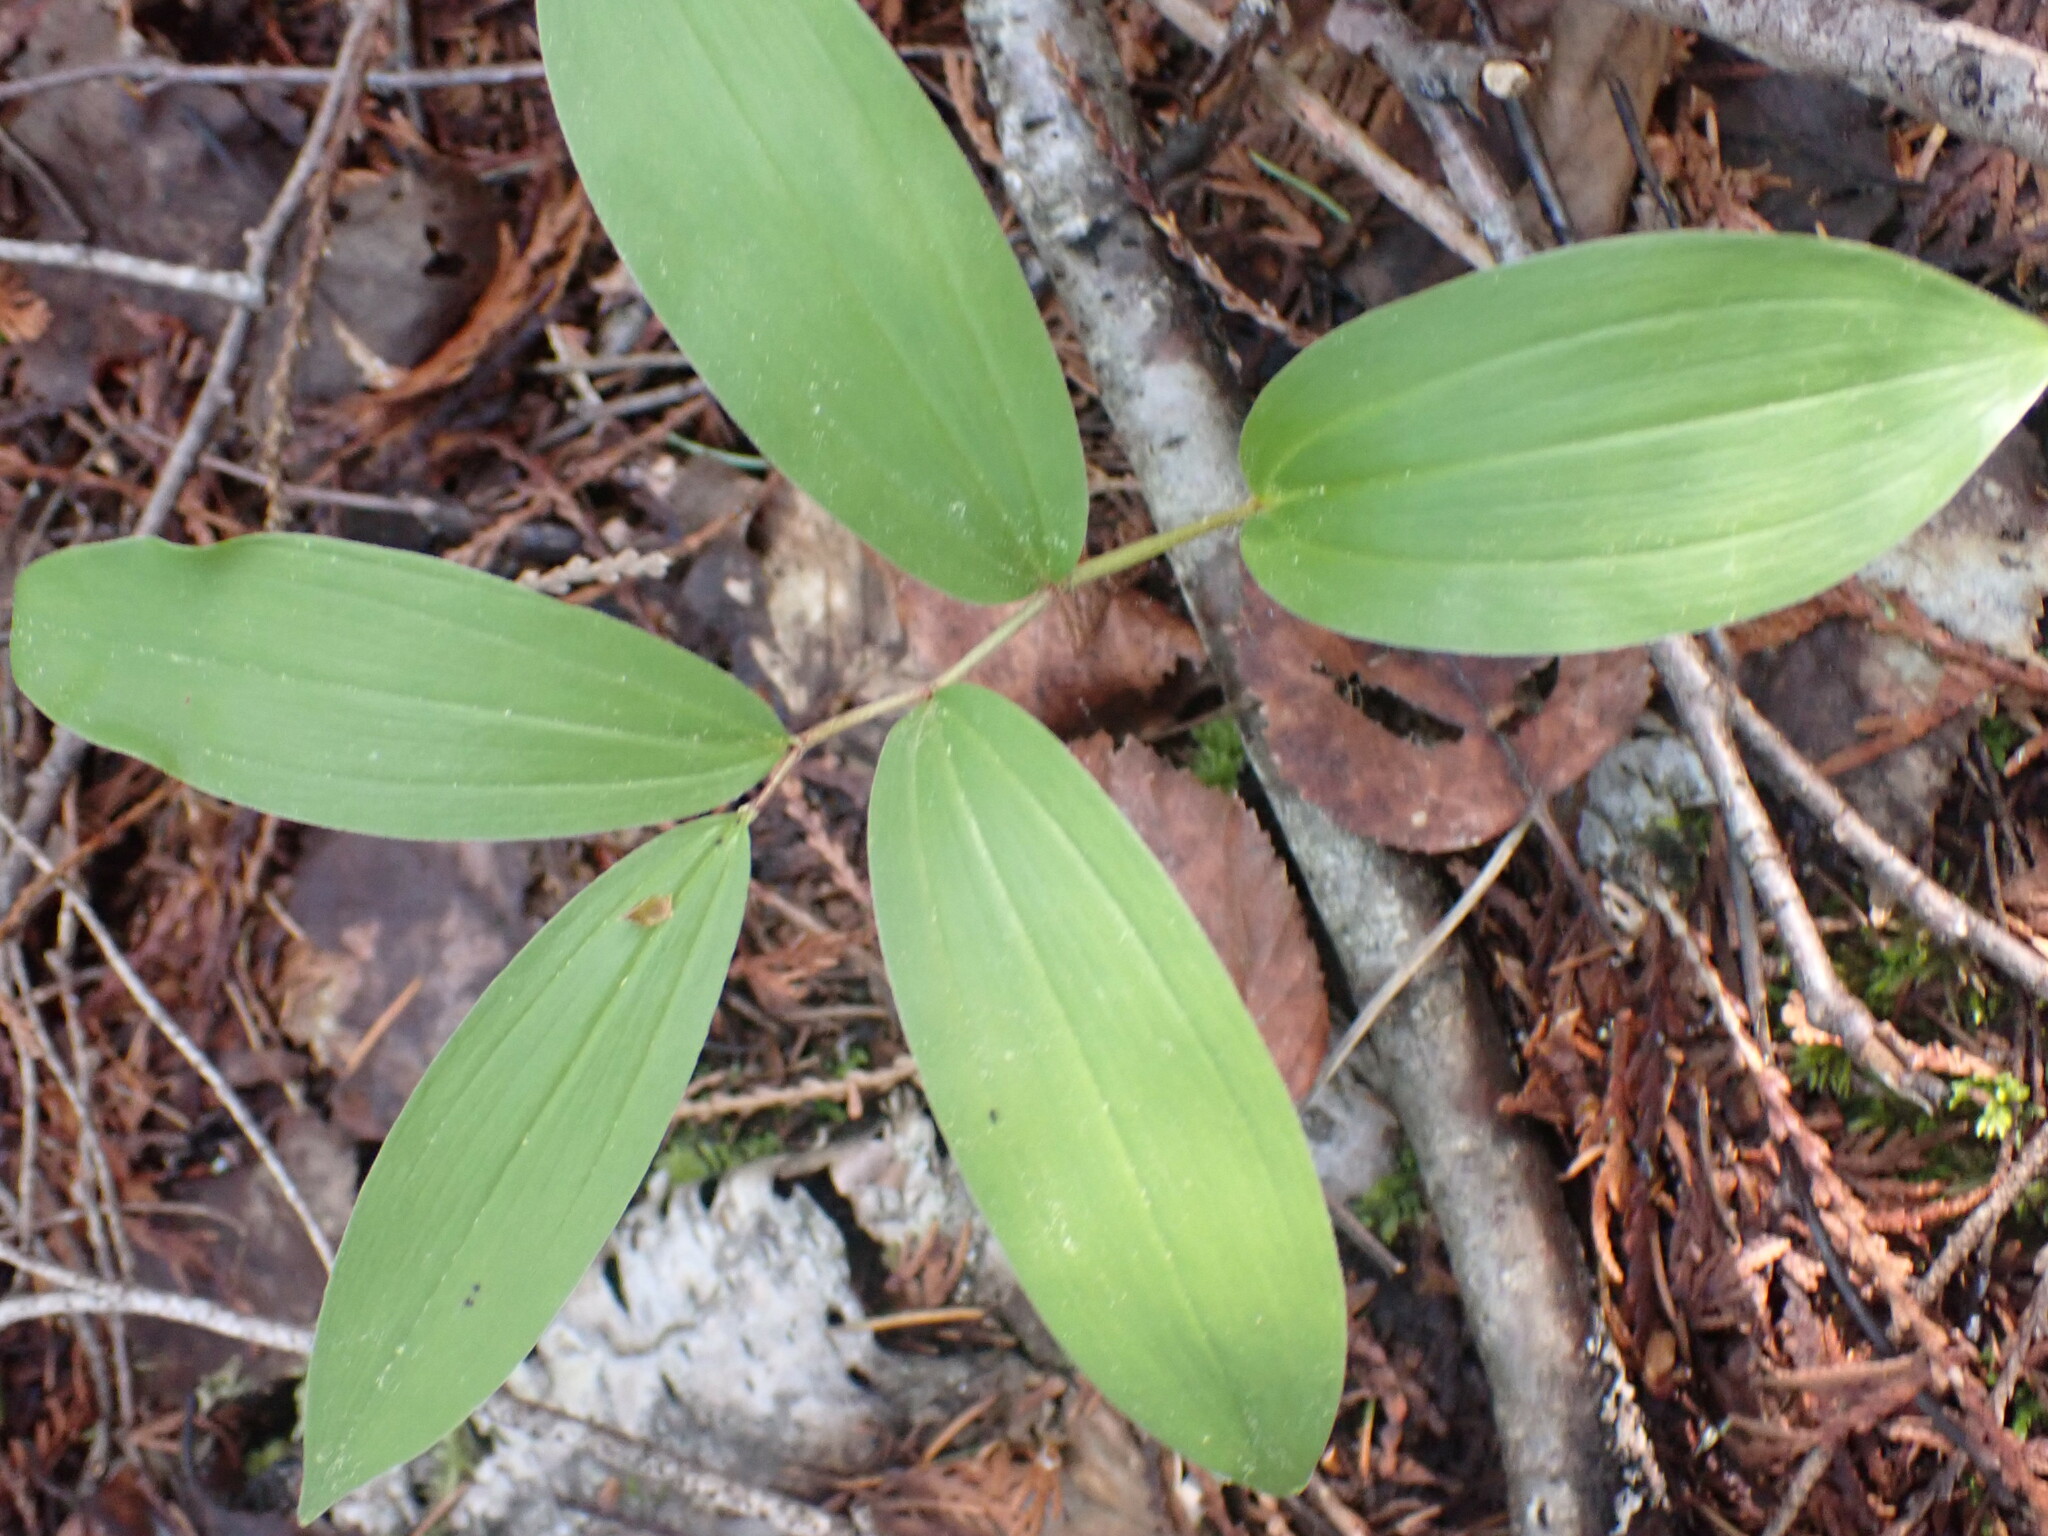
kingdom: Plantae
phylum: Tracheophyta
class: Liliopsida
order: Asparagales
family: Asparagaceae
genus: Maianthemum
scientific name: Maianthemum racemosum
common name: False spikenard
